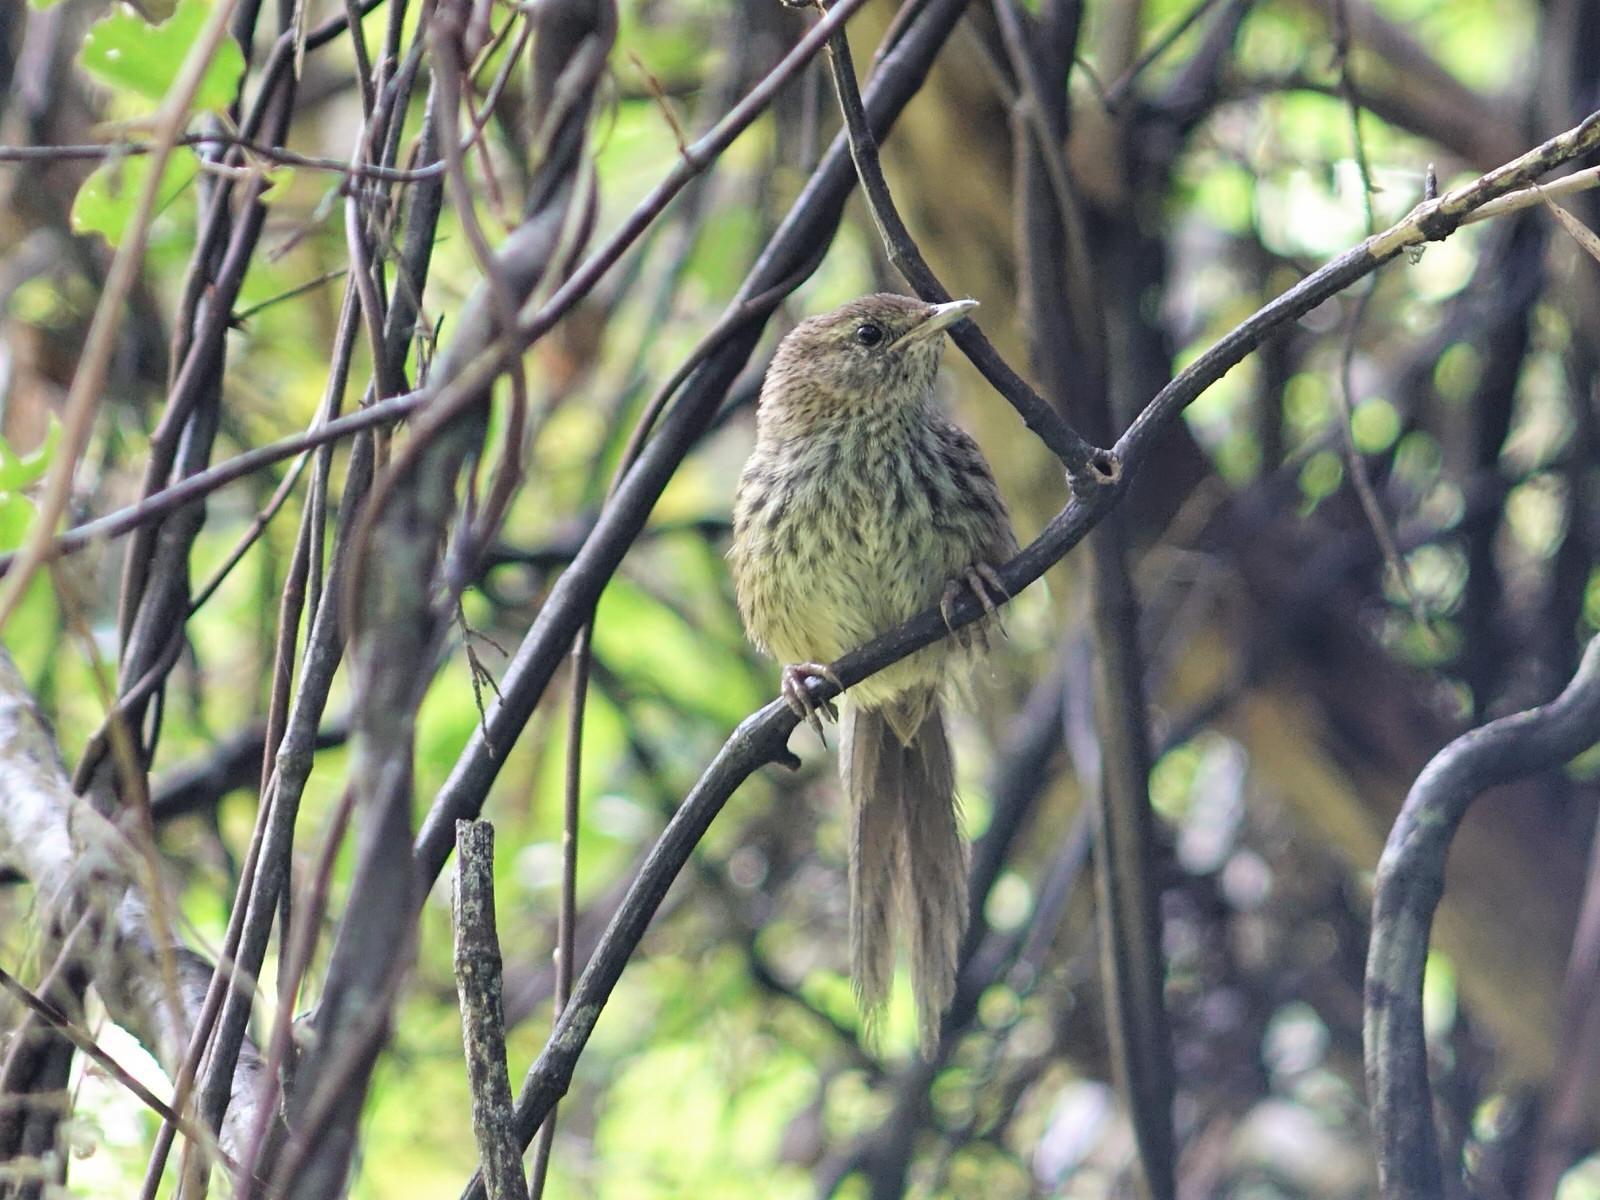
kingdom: Animalia
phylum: Chordata
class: Aves
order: Passeriformes
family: Locustellidae
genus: Megalurus
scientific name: Megalurus punctatus
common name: New zealand fernbird
